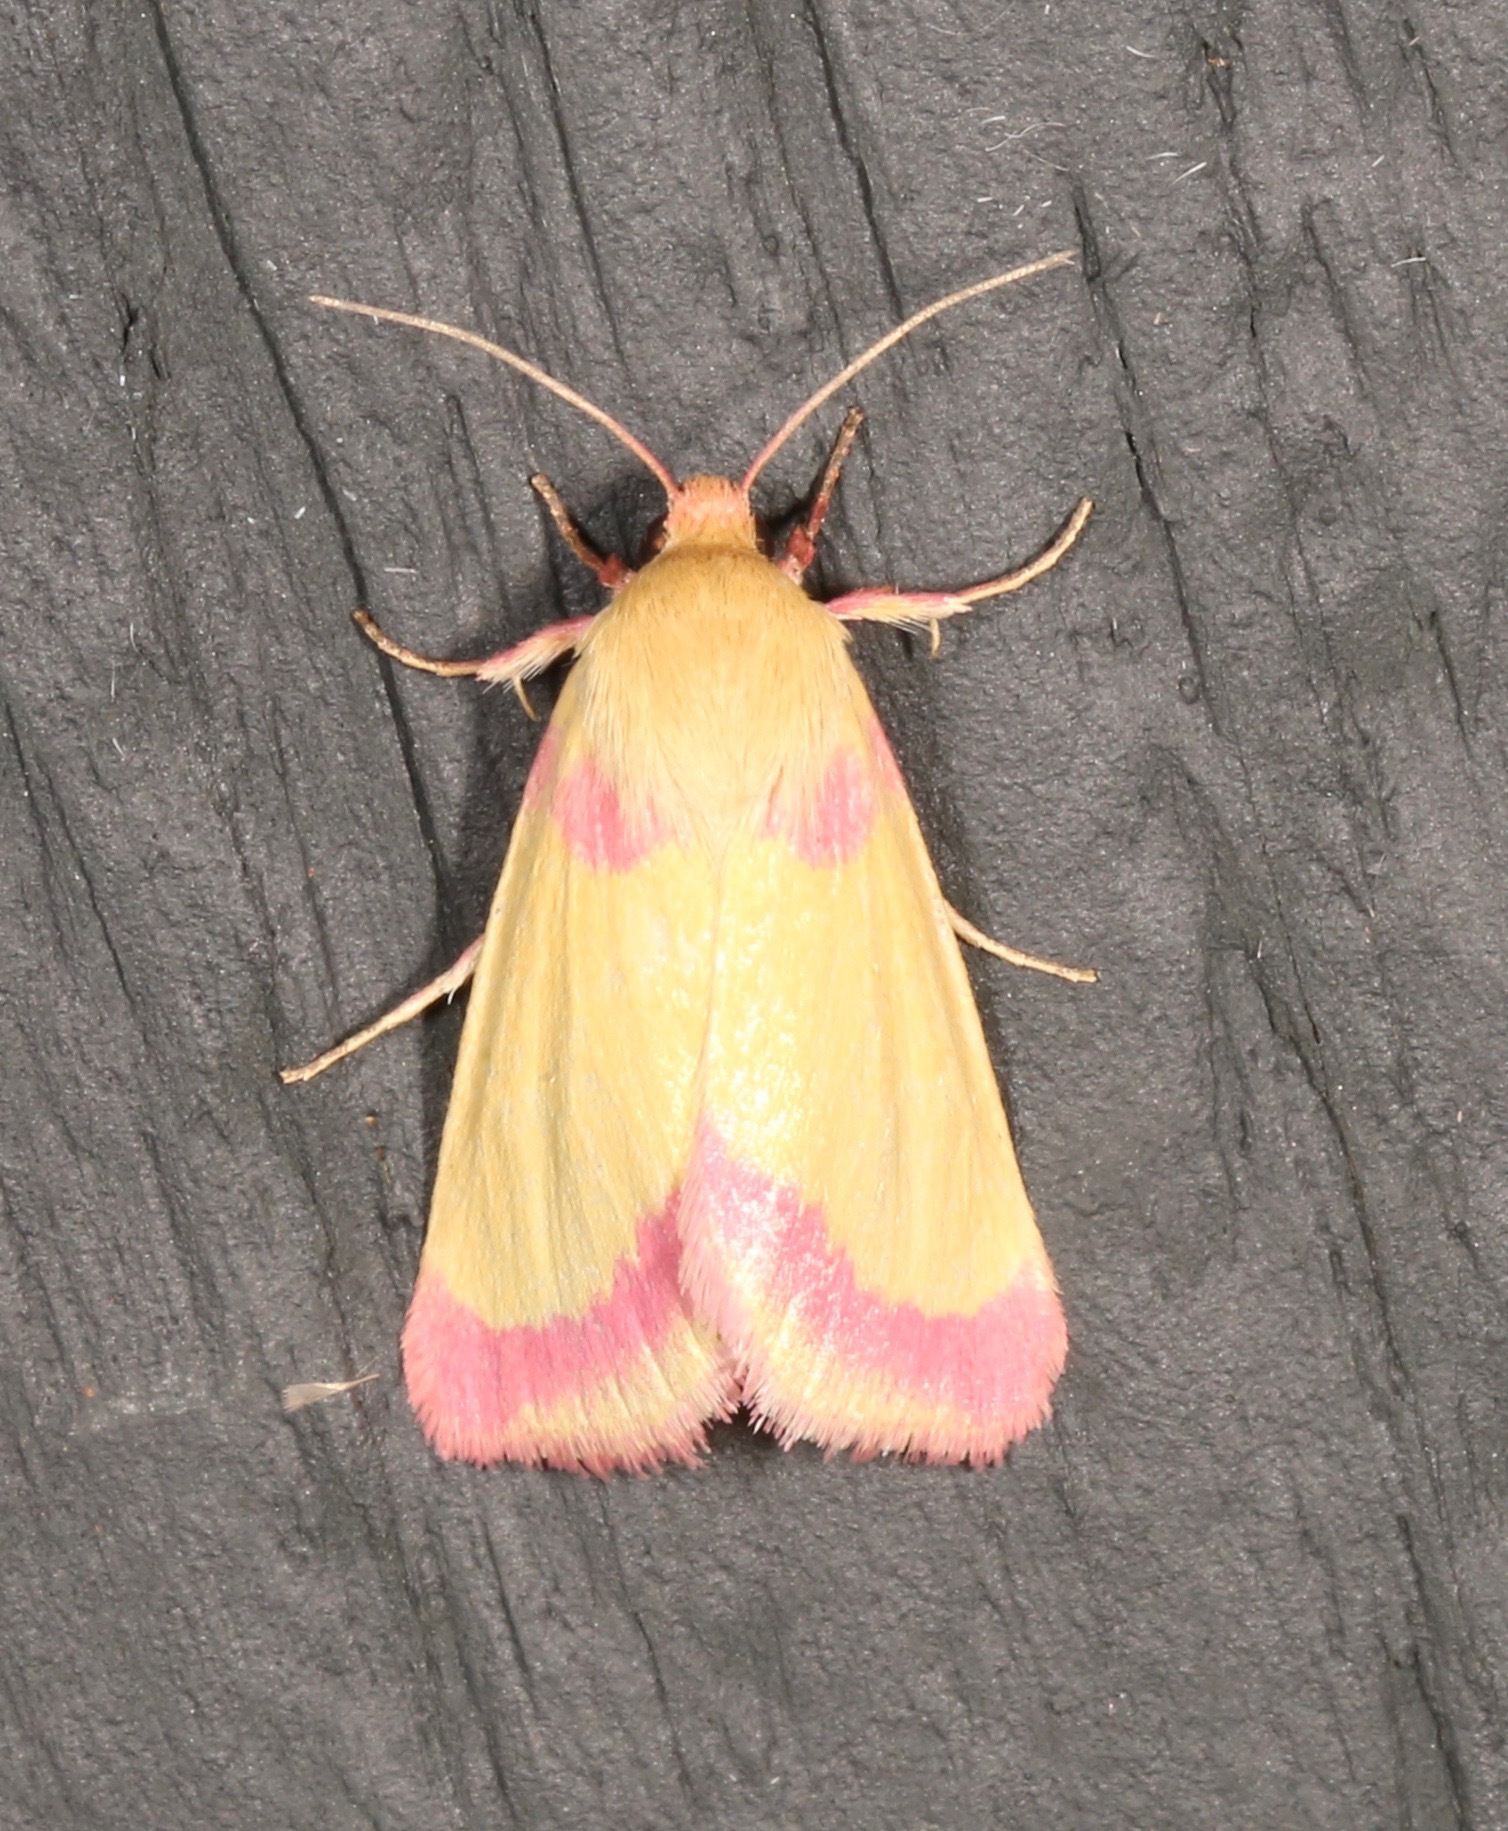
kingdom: Animalia
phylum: Arthropoda
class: Insecta
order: Lepidoptera
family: Noctuidae
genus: Heliocheilus
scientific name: Heliocheilus toralis
